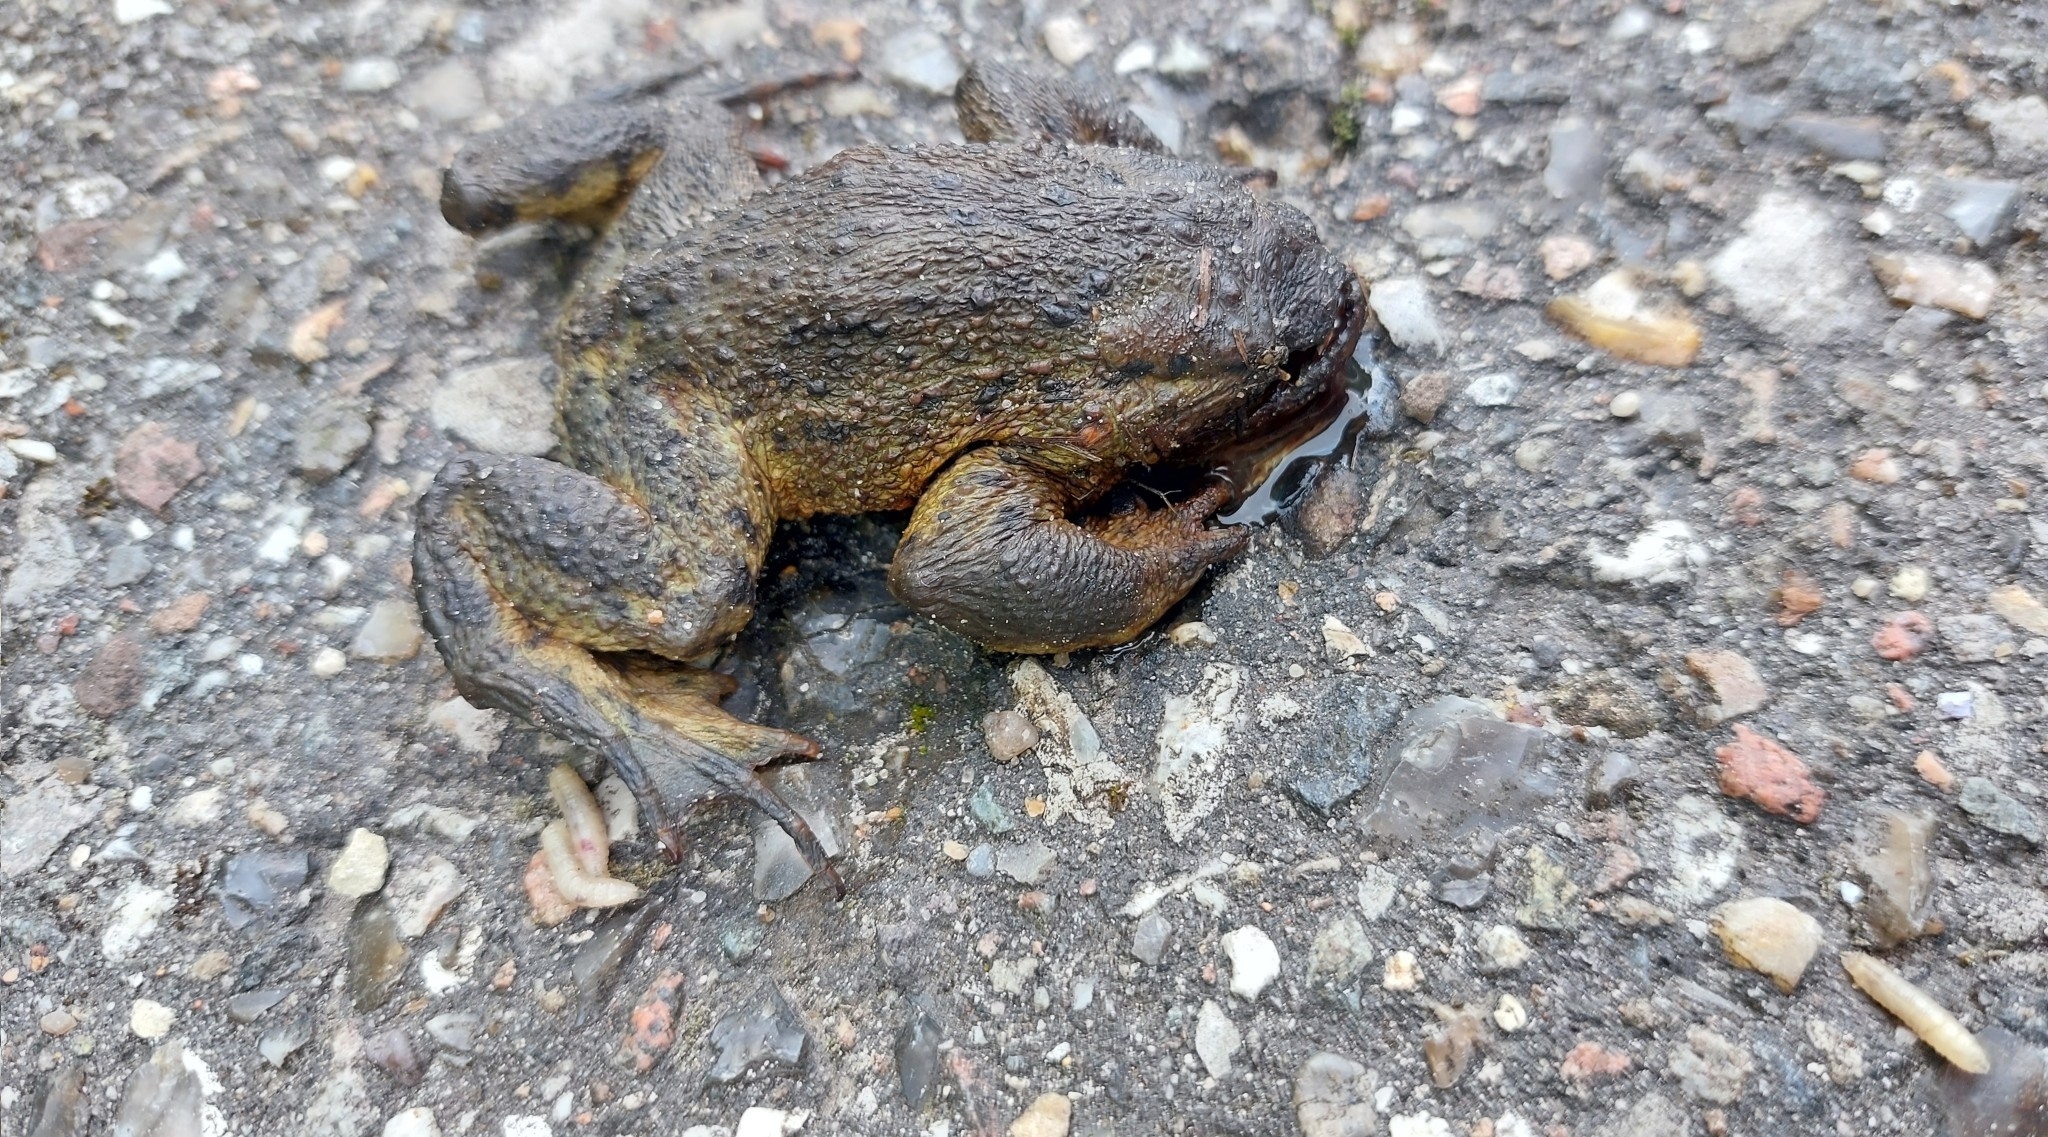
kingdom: Animalia
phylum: Chordata
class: Amphibia
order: Anura
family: Bufonidae
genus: Bufo
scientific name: Bufo bufo
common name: Common toad
